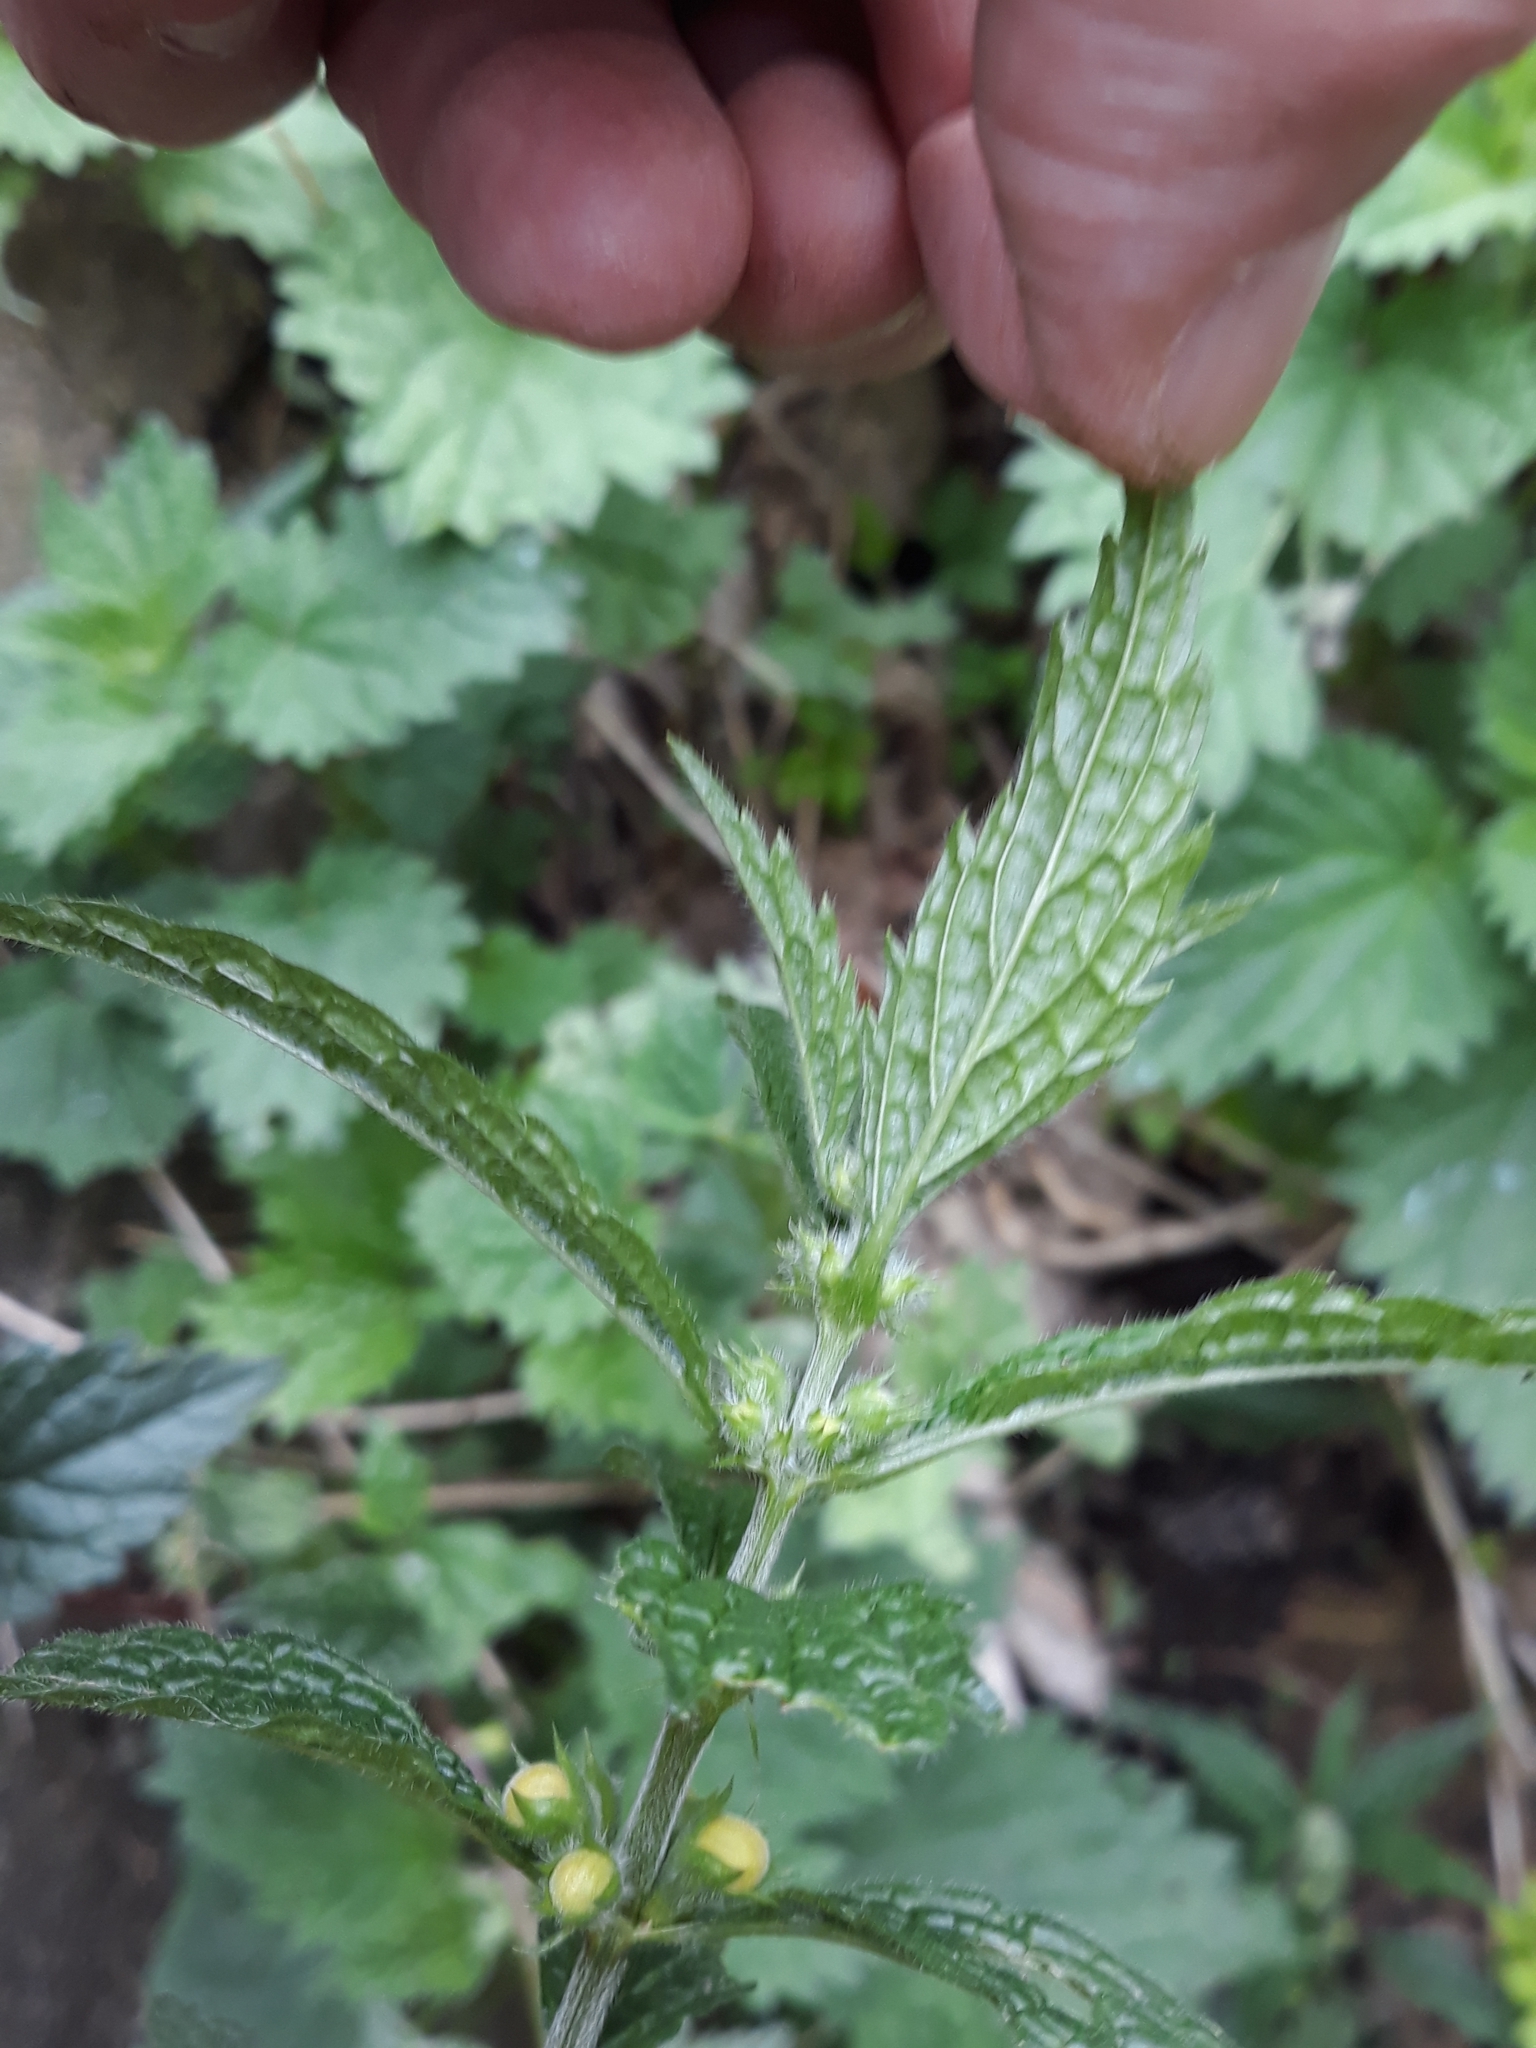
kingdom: Plantae
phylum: Tracheophyta
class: Magnoliopsida
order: Lamiales
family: Lamiaceae
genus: Lamium
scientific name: Lamium galeobdolon
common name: Yellow archangel
